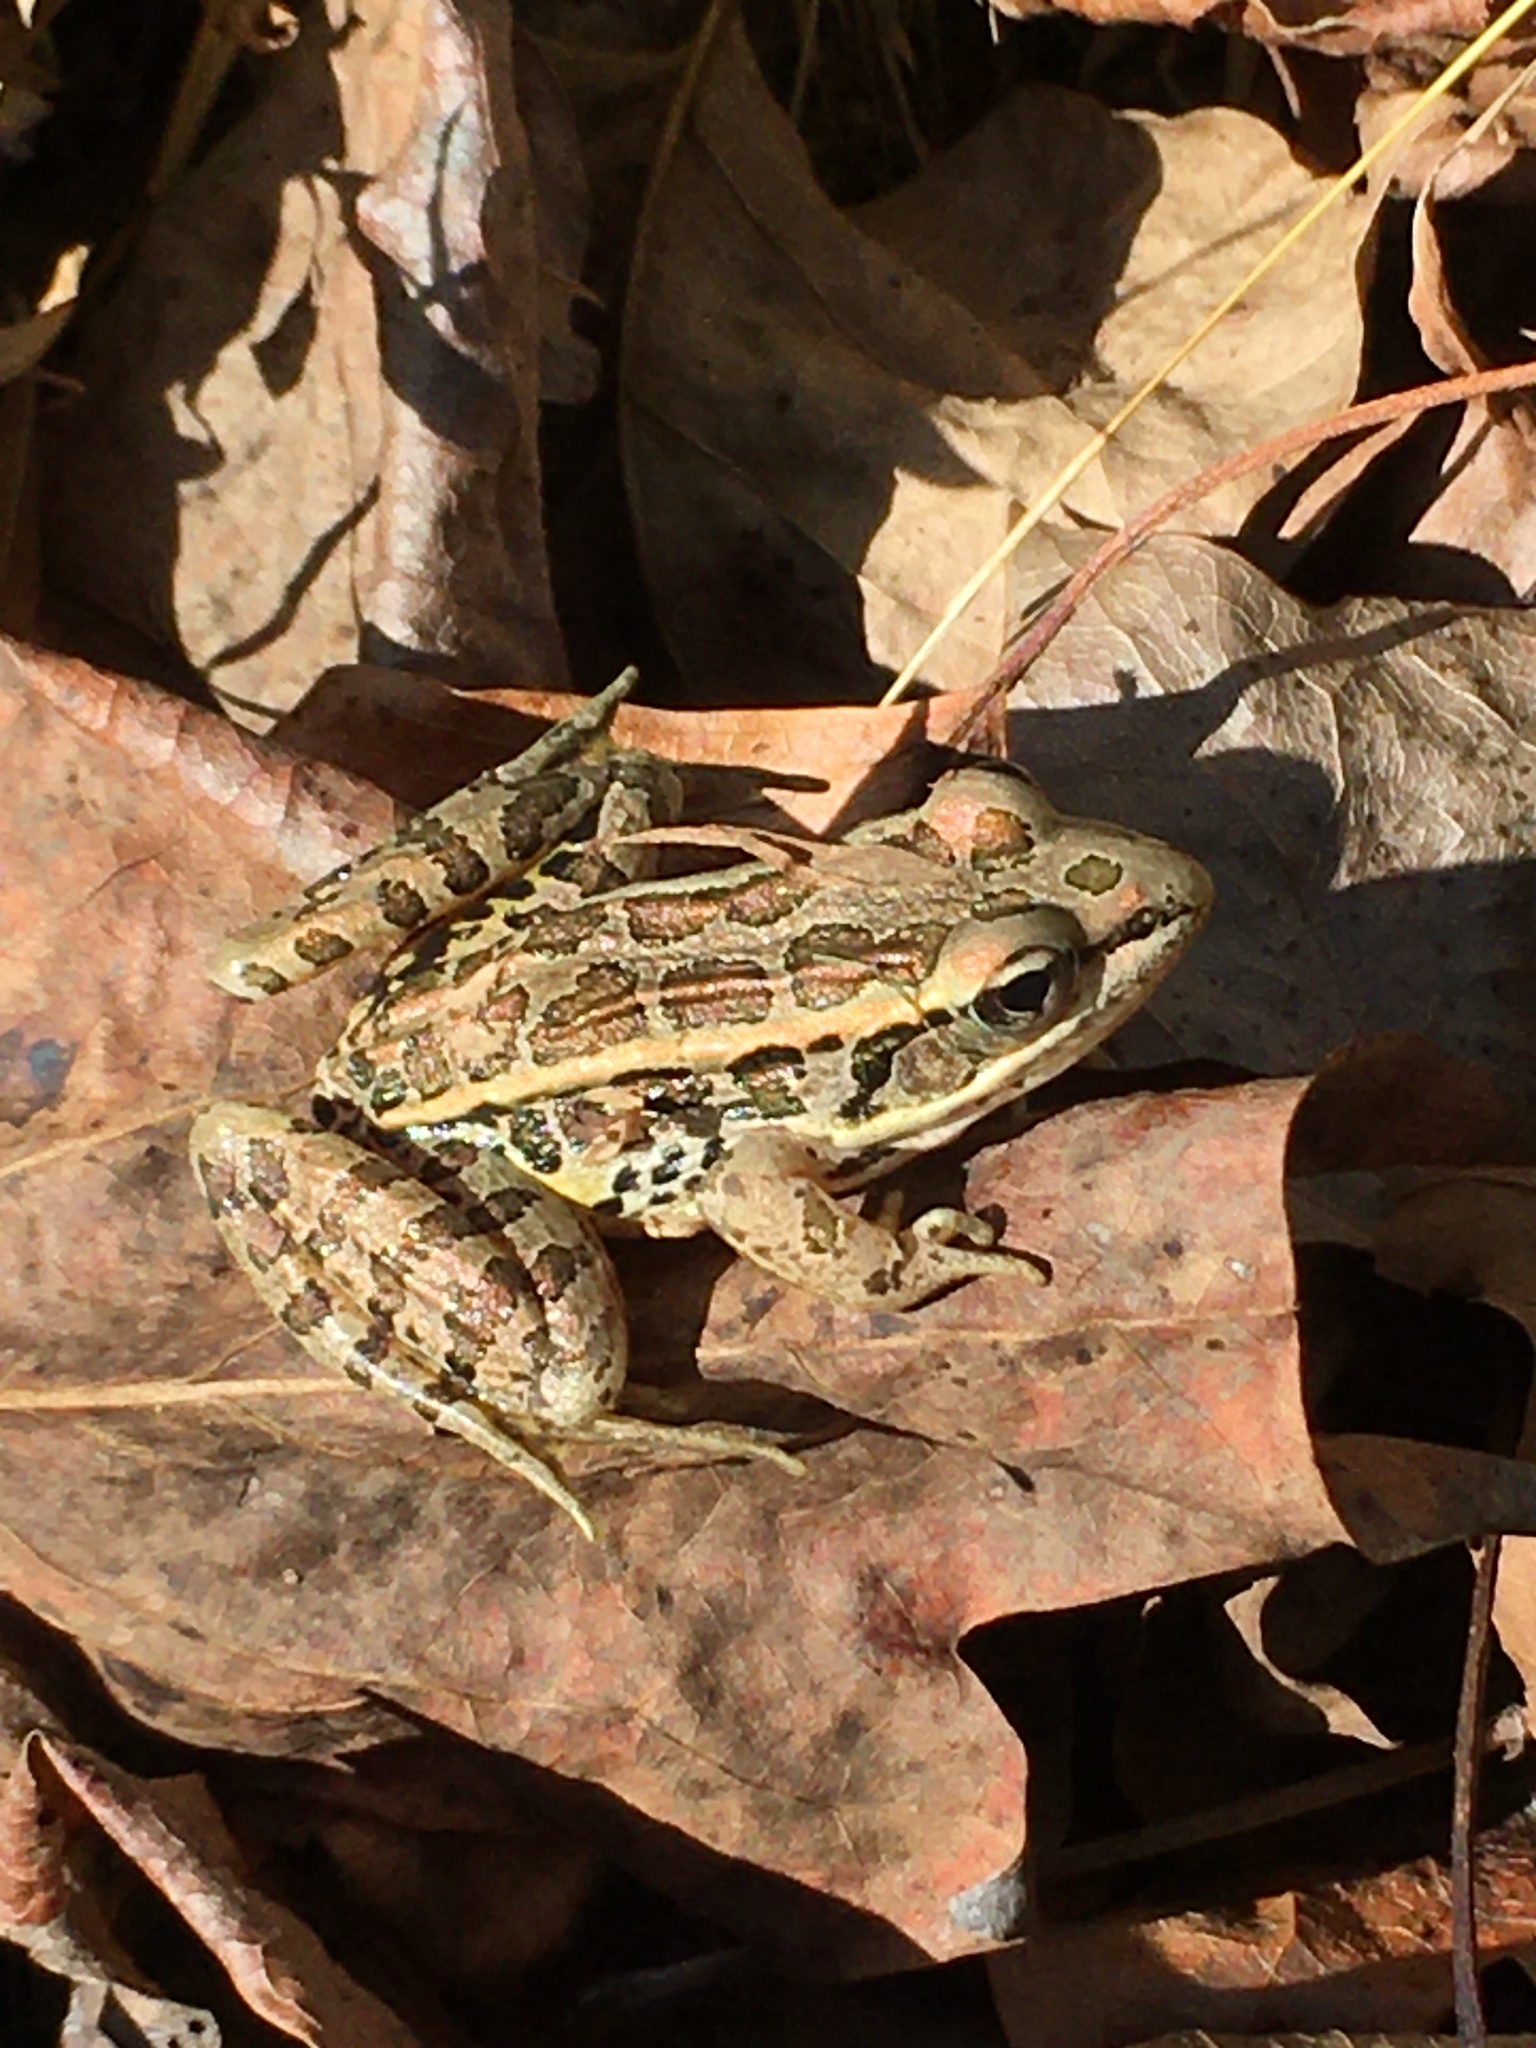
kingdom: Animalia
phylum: Chordata
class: Amphibia
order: Anura
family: Ranidae
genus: Lithobates
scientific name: Lithobates palustris
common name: Pickerel frog
